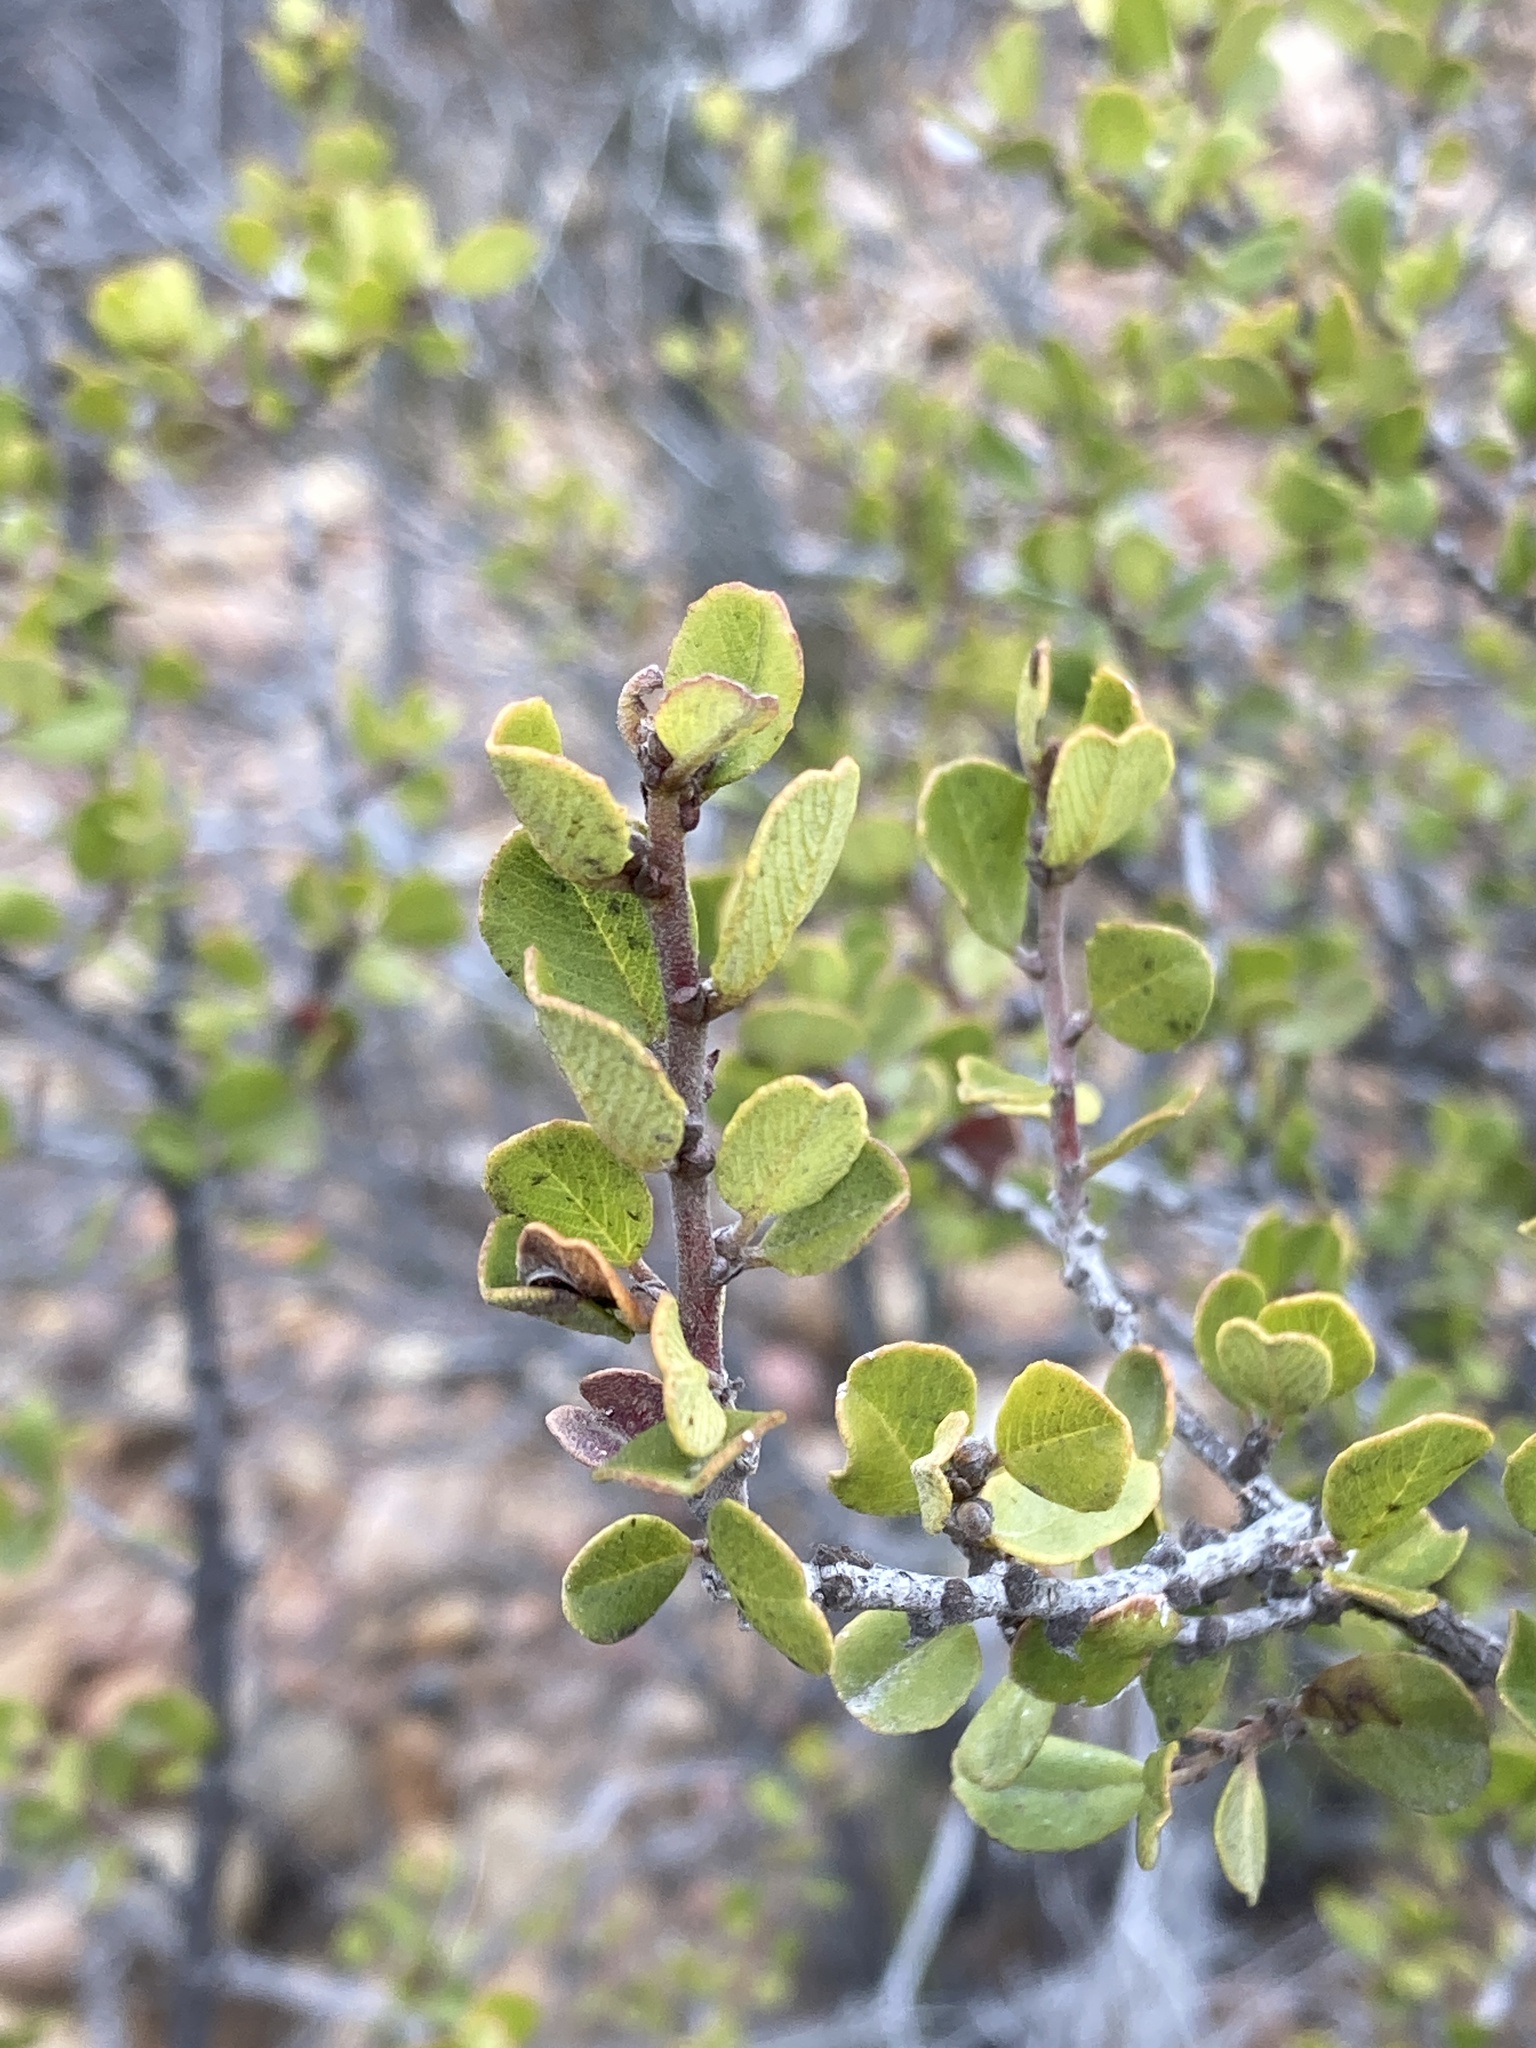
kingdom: Plantae
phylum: Tracheophyta
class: Magnoliopsida
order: Rosales
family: Rhamnaceae
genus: Ceanothus
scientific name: Ceanothus verrucosus
